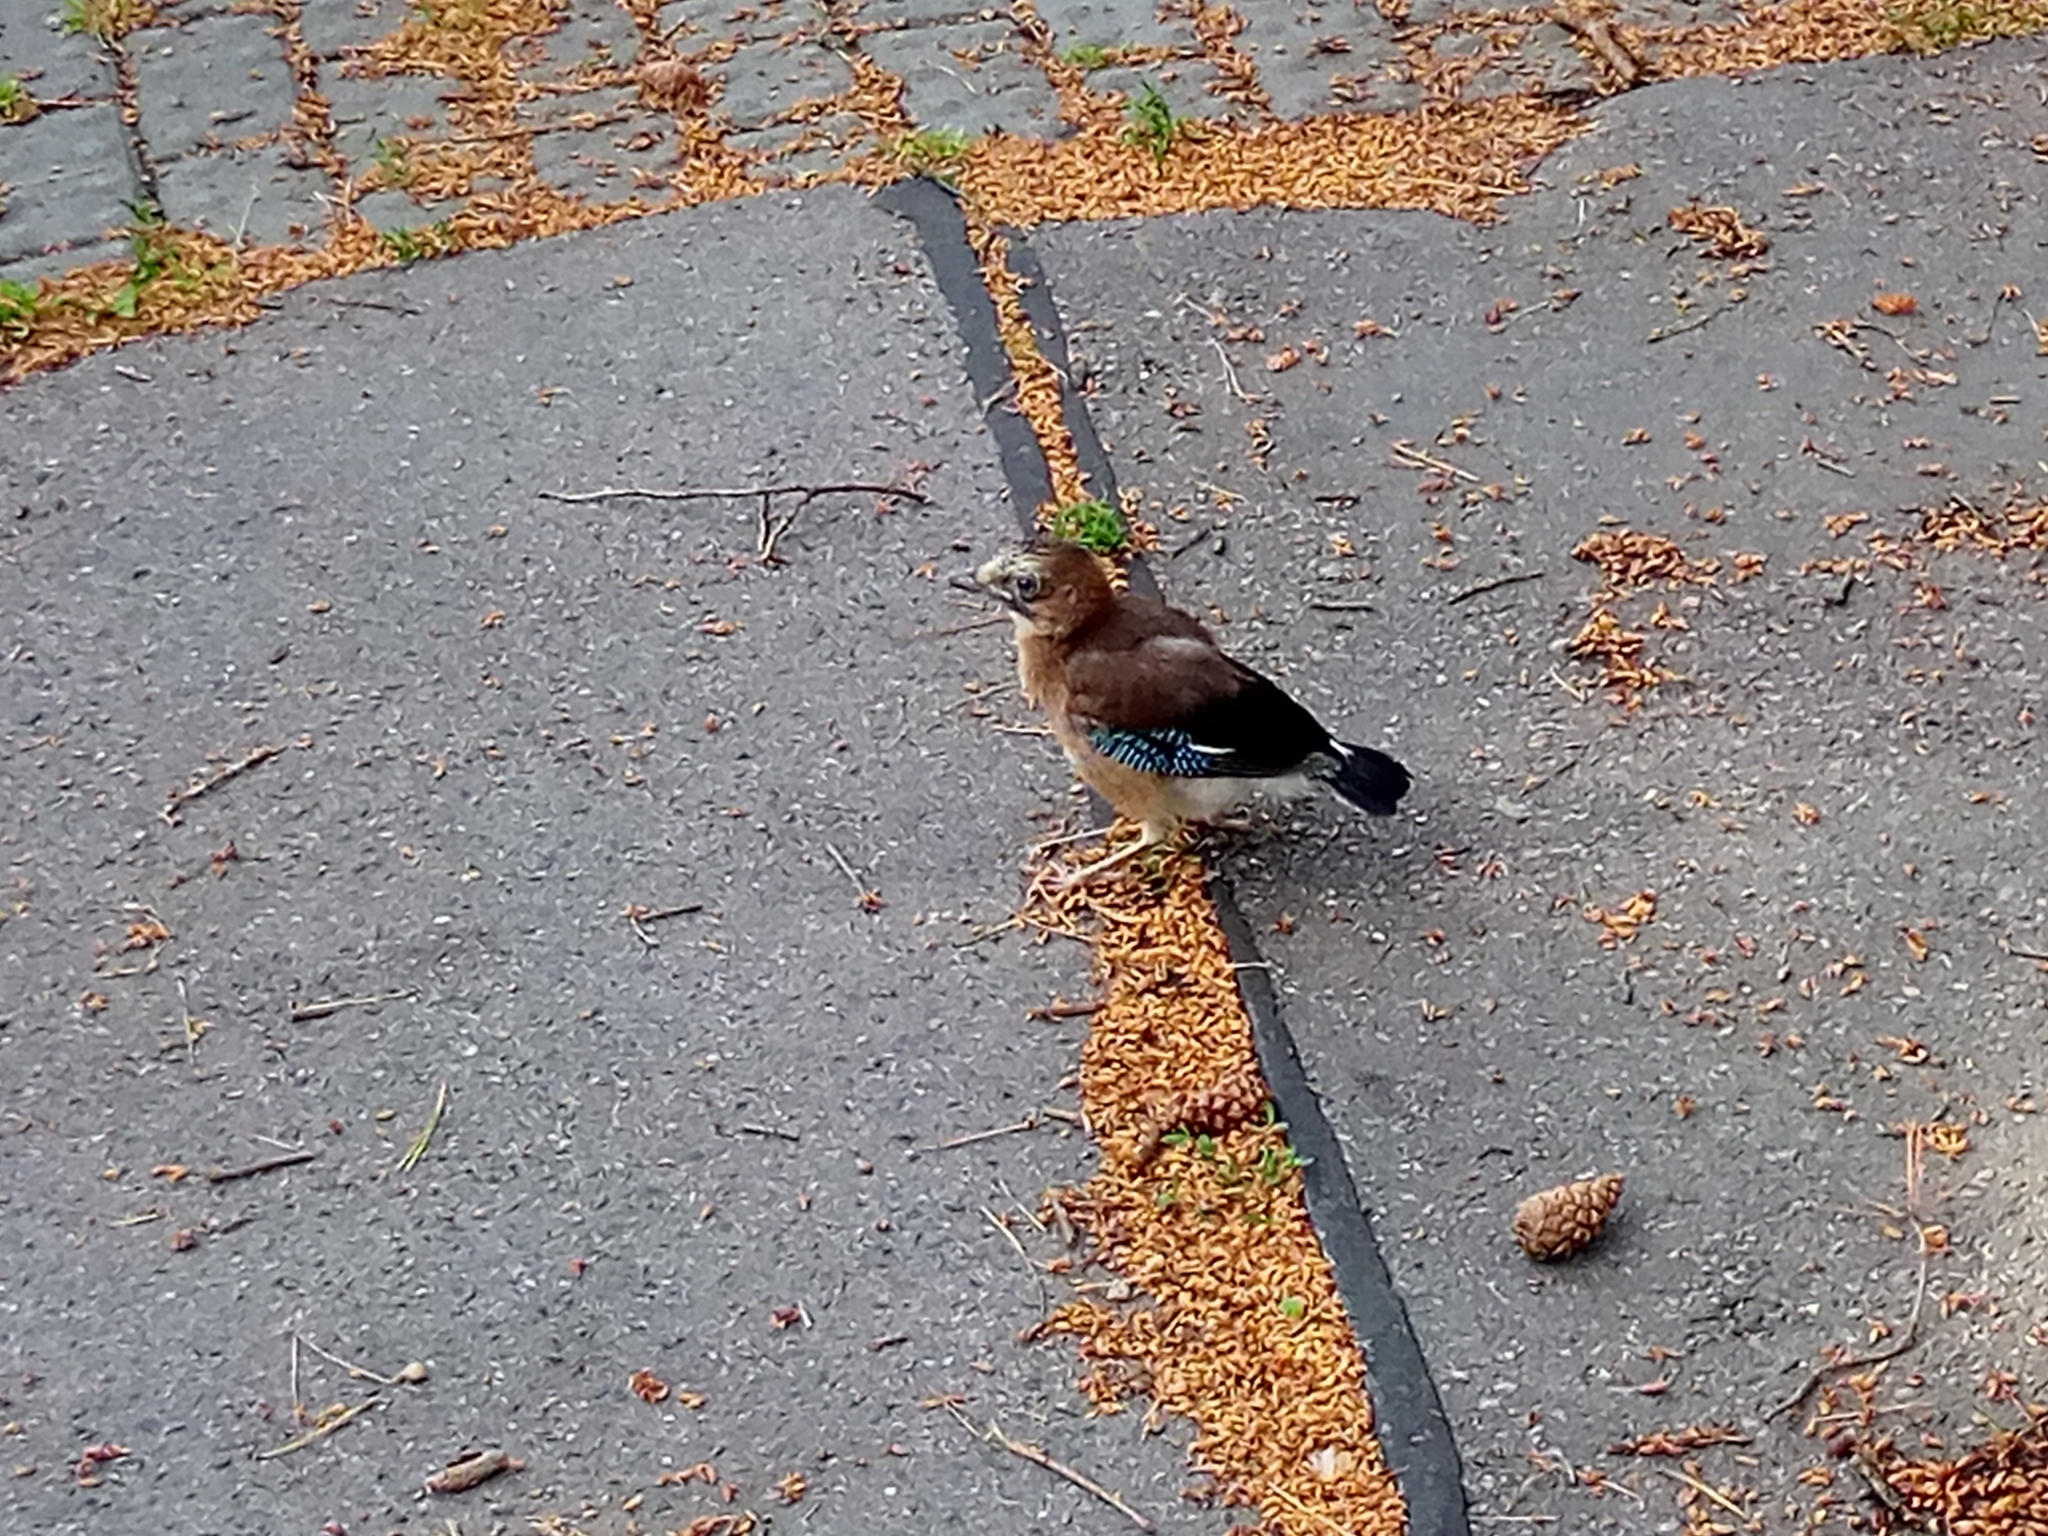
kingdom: Animalia
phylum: Chordata
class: Aves
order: Passeriformes
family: Corvidae
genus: Garrulus
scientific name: Garrulus glandarius
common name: Eurasian jay
